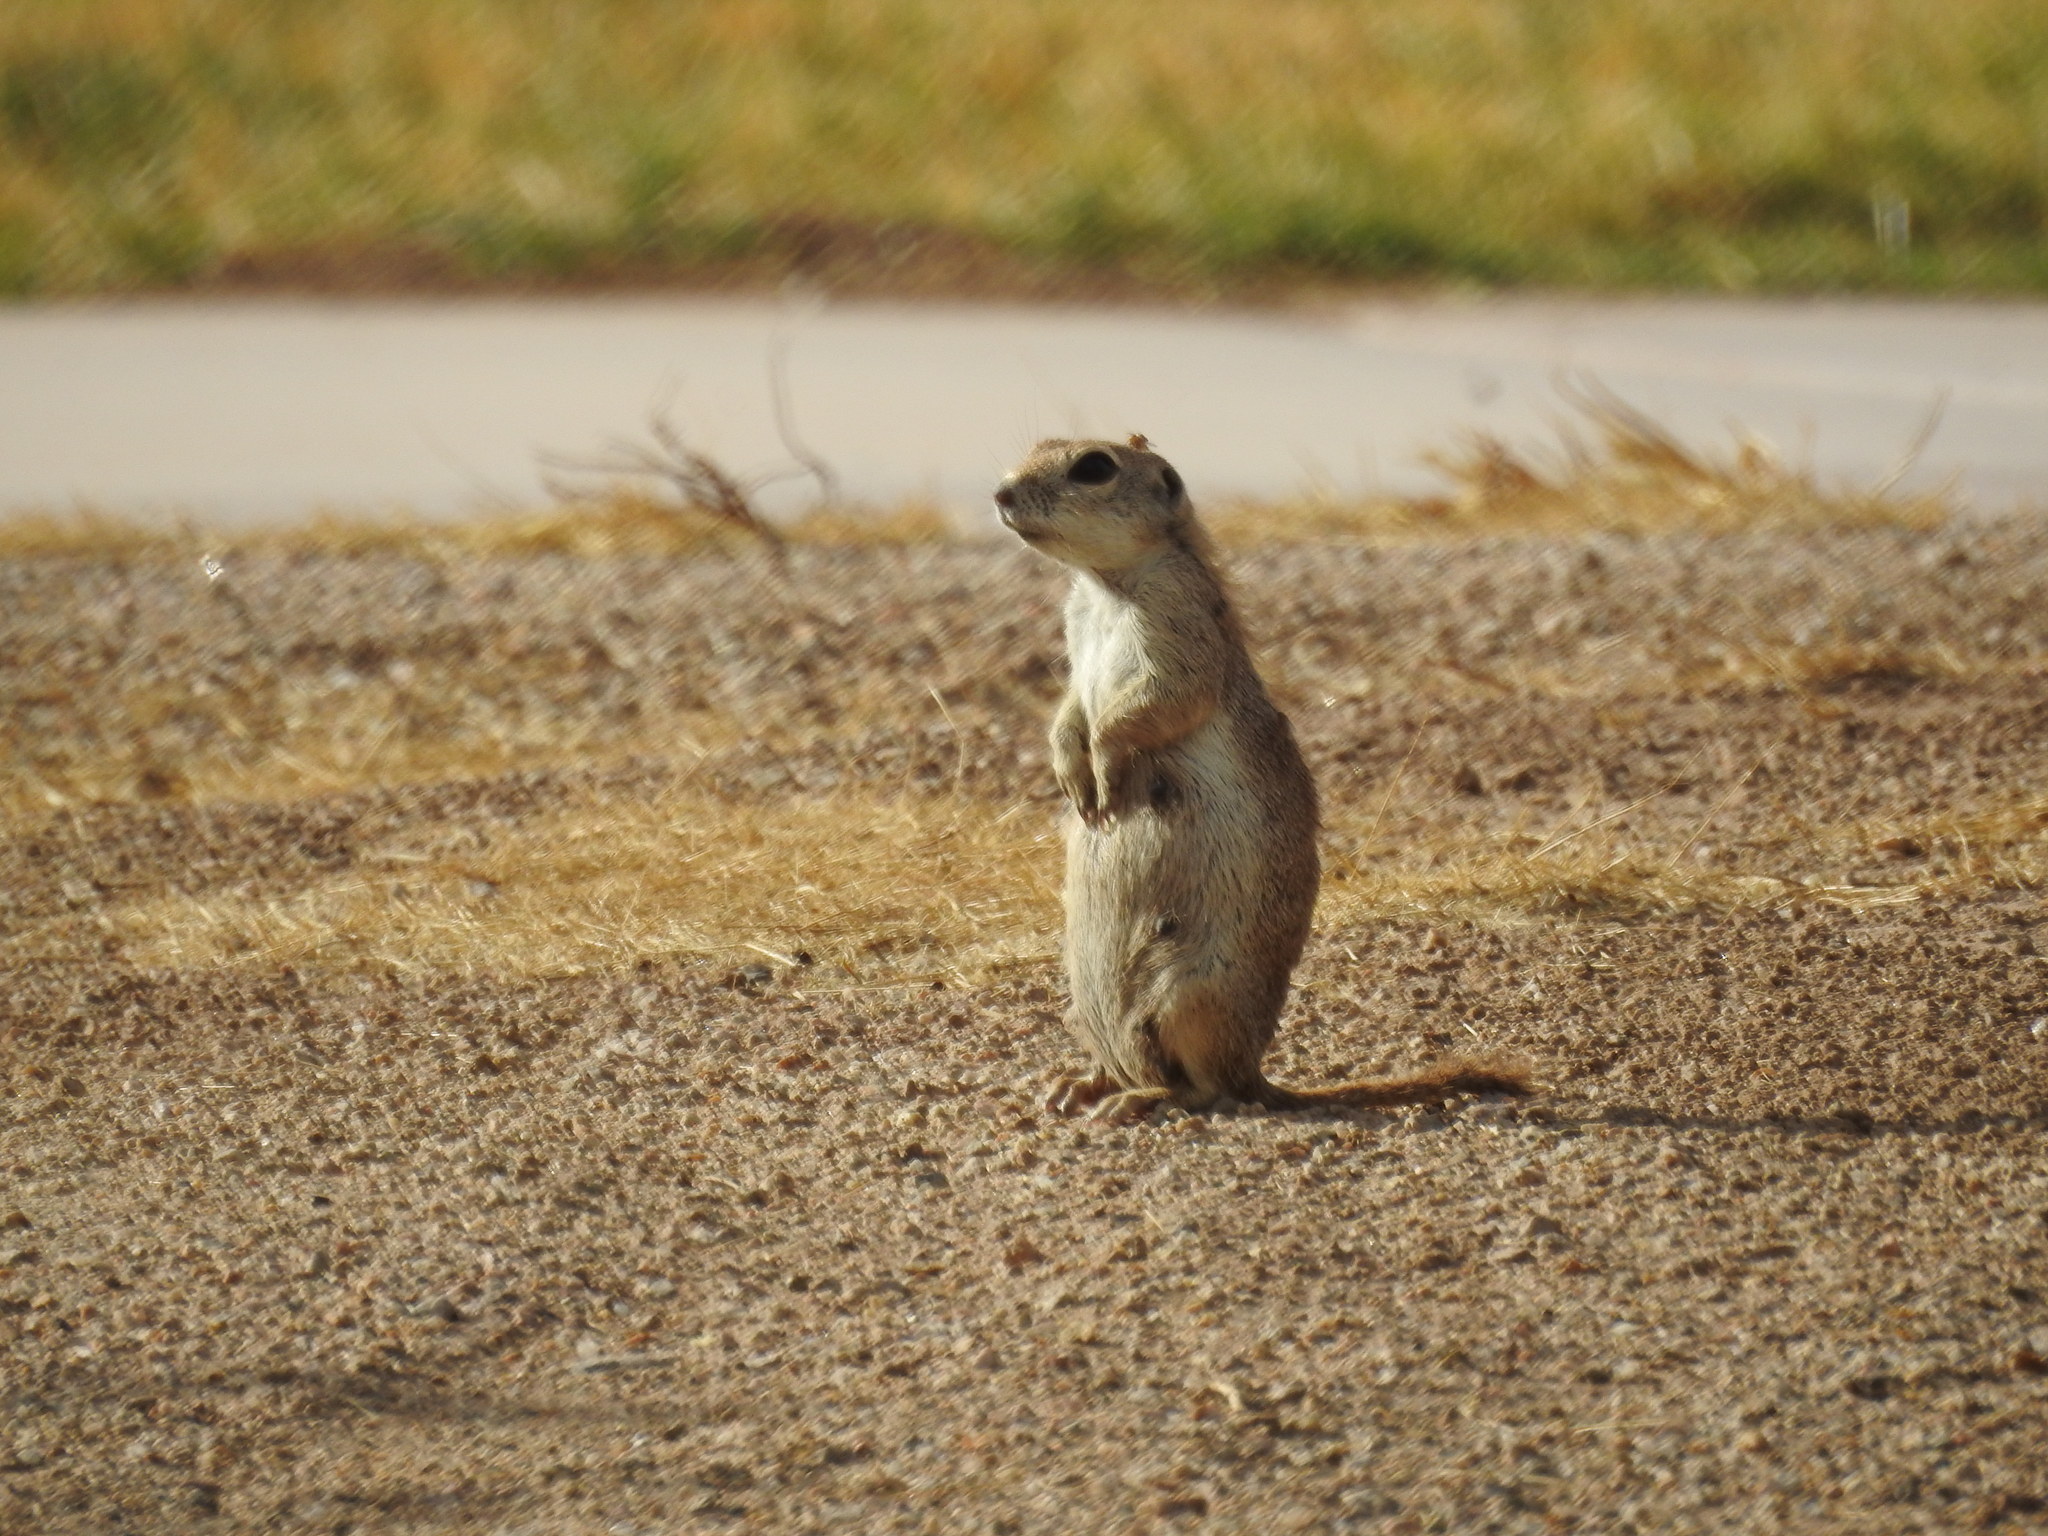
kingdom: Animalia
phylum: Chordata
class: Mammalia
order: Rodentia
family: Sciuridae
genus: Xerospermophilus
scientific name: Xerospermophilus tereticaudus
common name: Round-tailed ground squirrel
